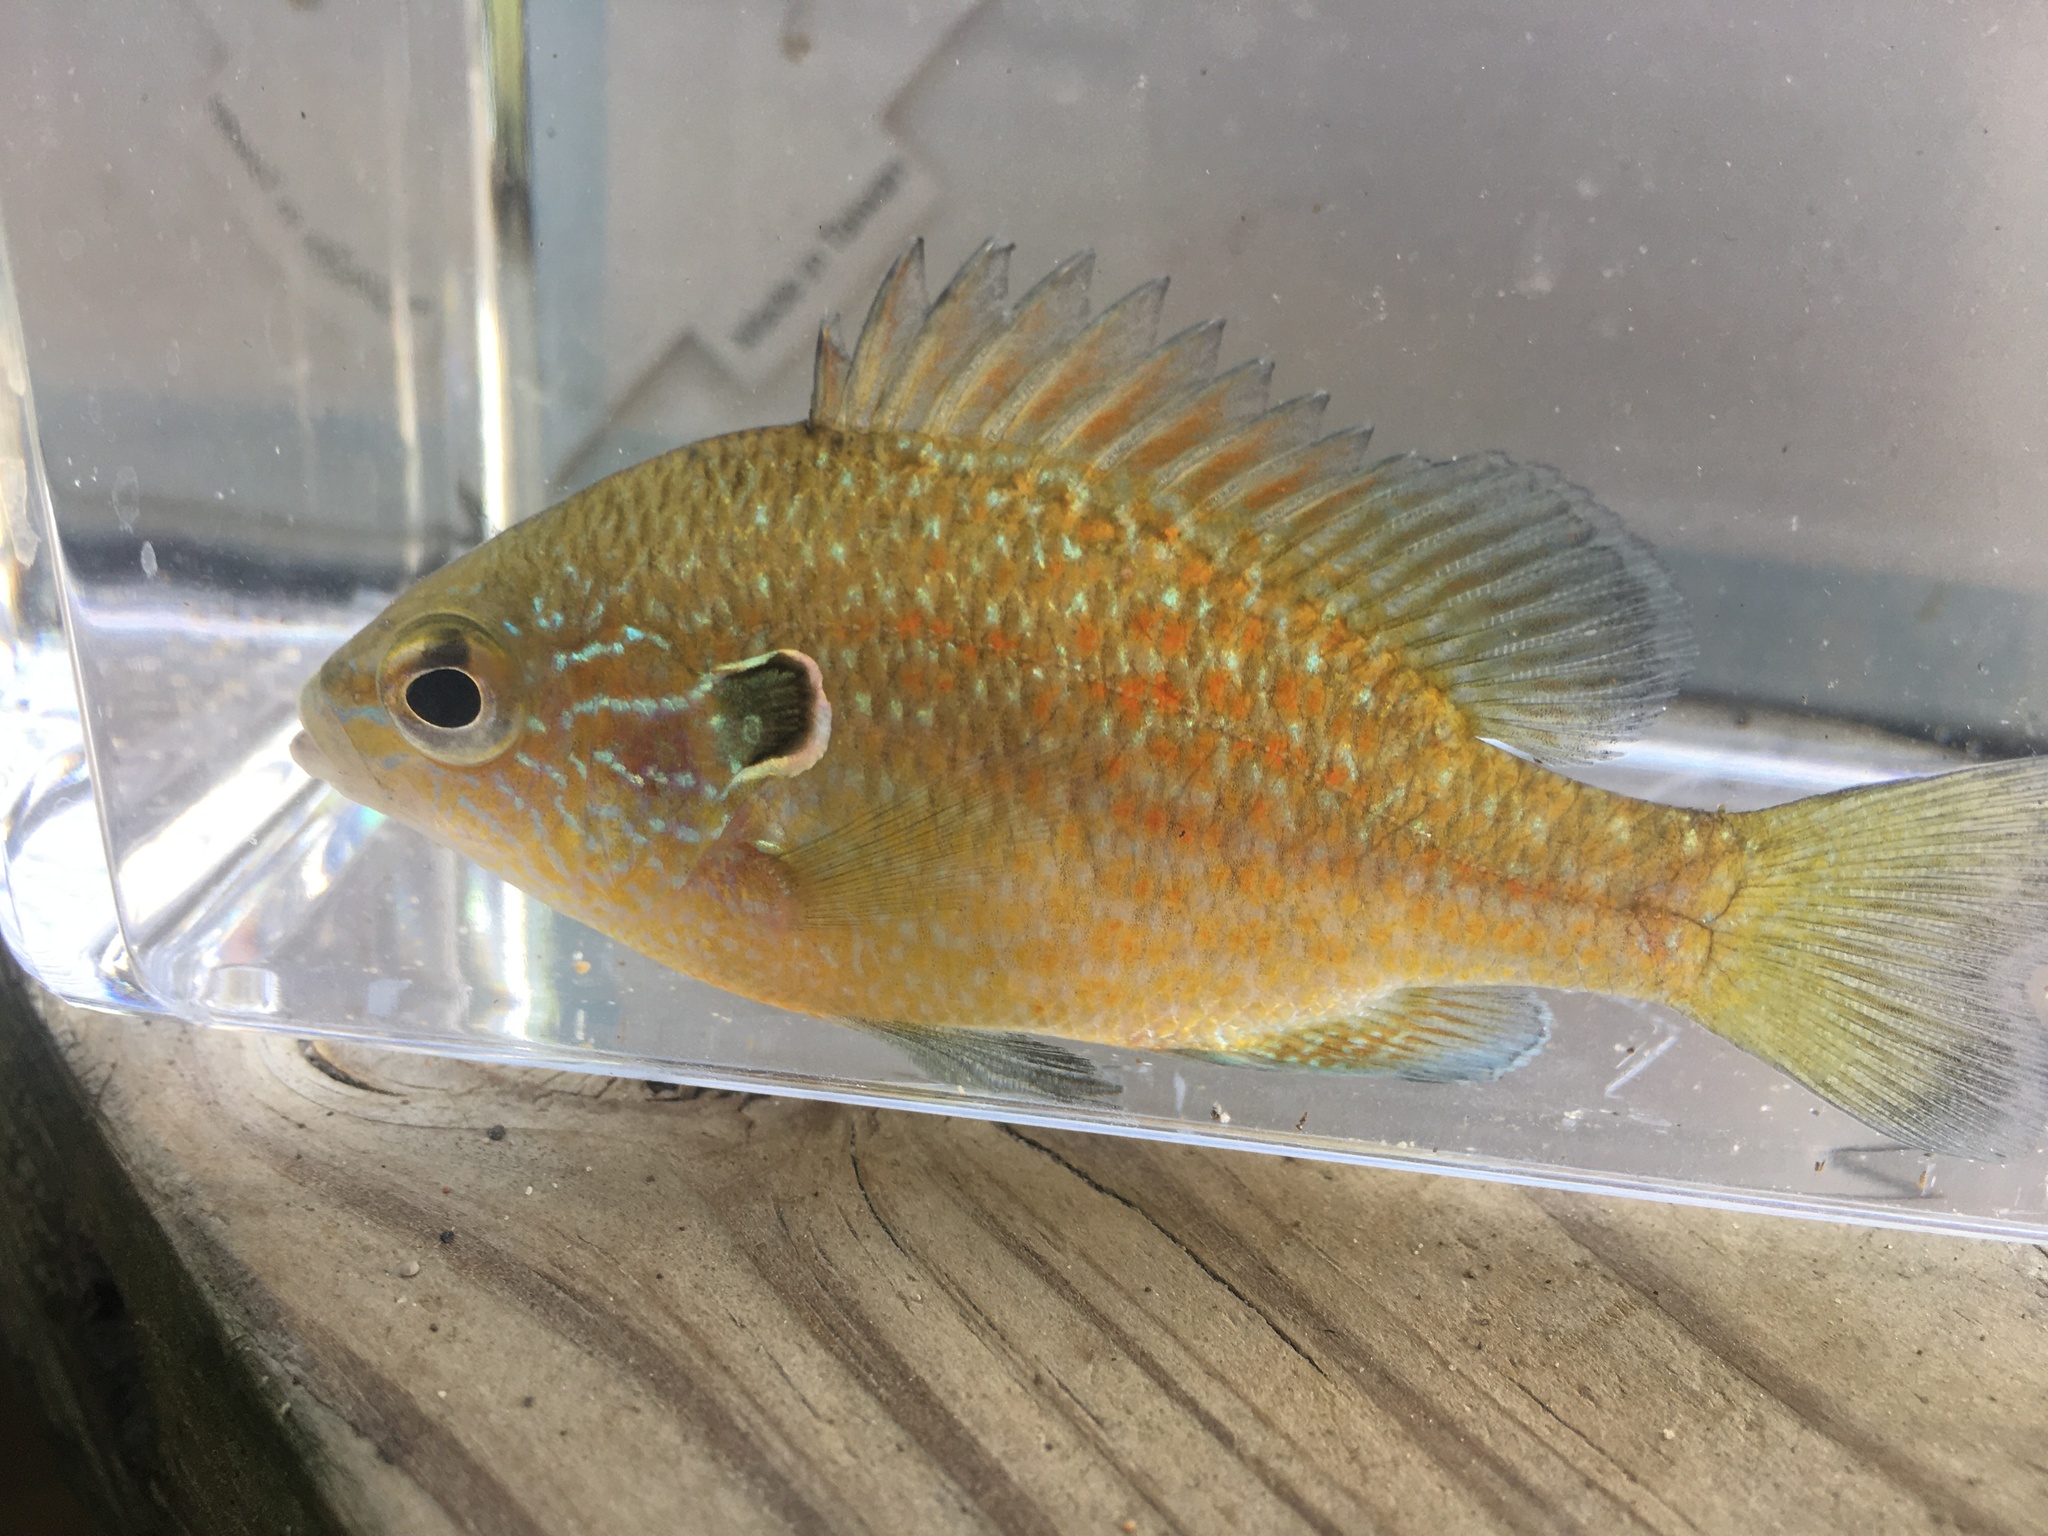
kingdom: Animalia
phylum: Chordata
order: Perciformes
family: Centrarchidae
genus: Lepomis
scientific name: Lepomis marginatus
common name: Dollar sunfish
